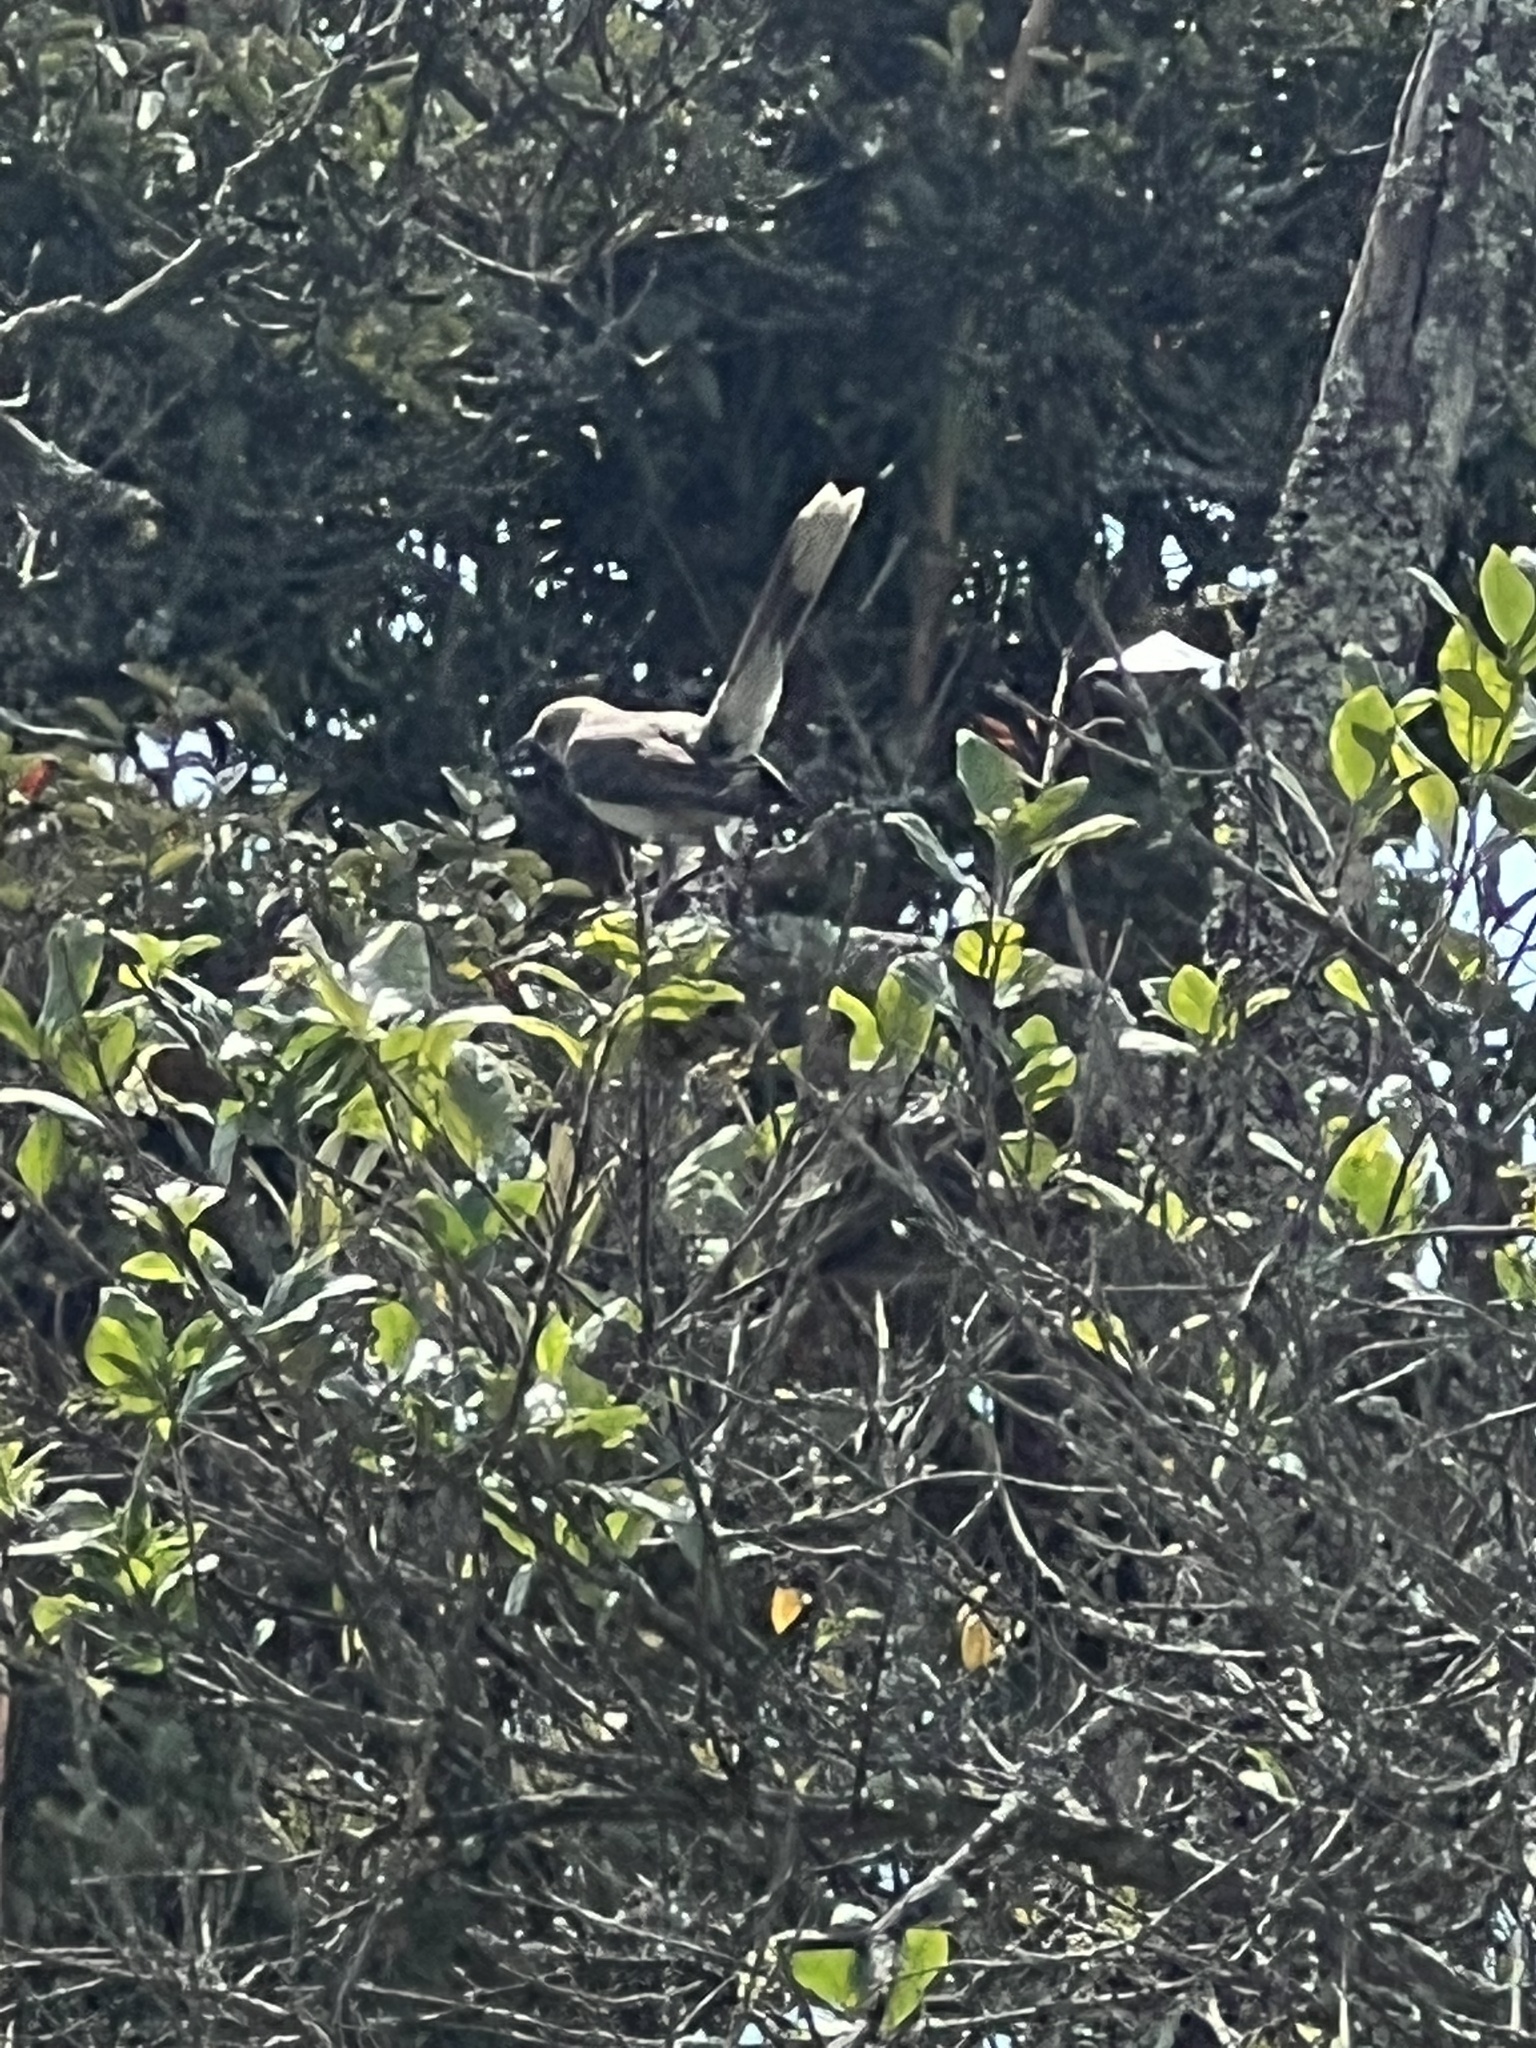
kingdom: Animalia
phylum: Chordata
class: Aves
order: Passeriformes
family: Mimidae
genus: Mimus
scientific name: Mimus gilvus
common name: Tropical mockingbird
